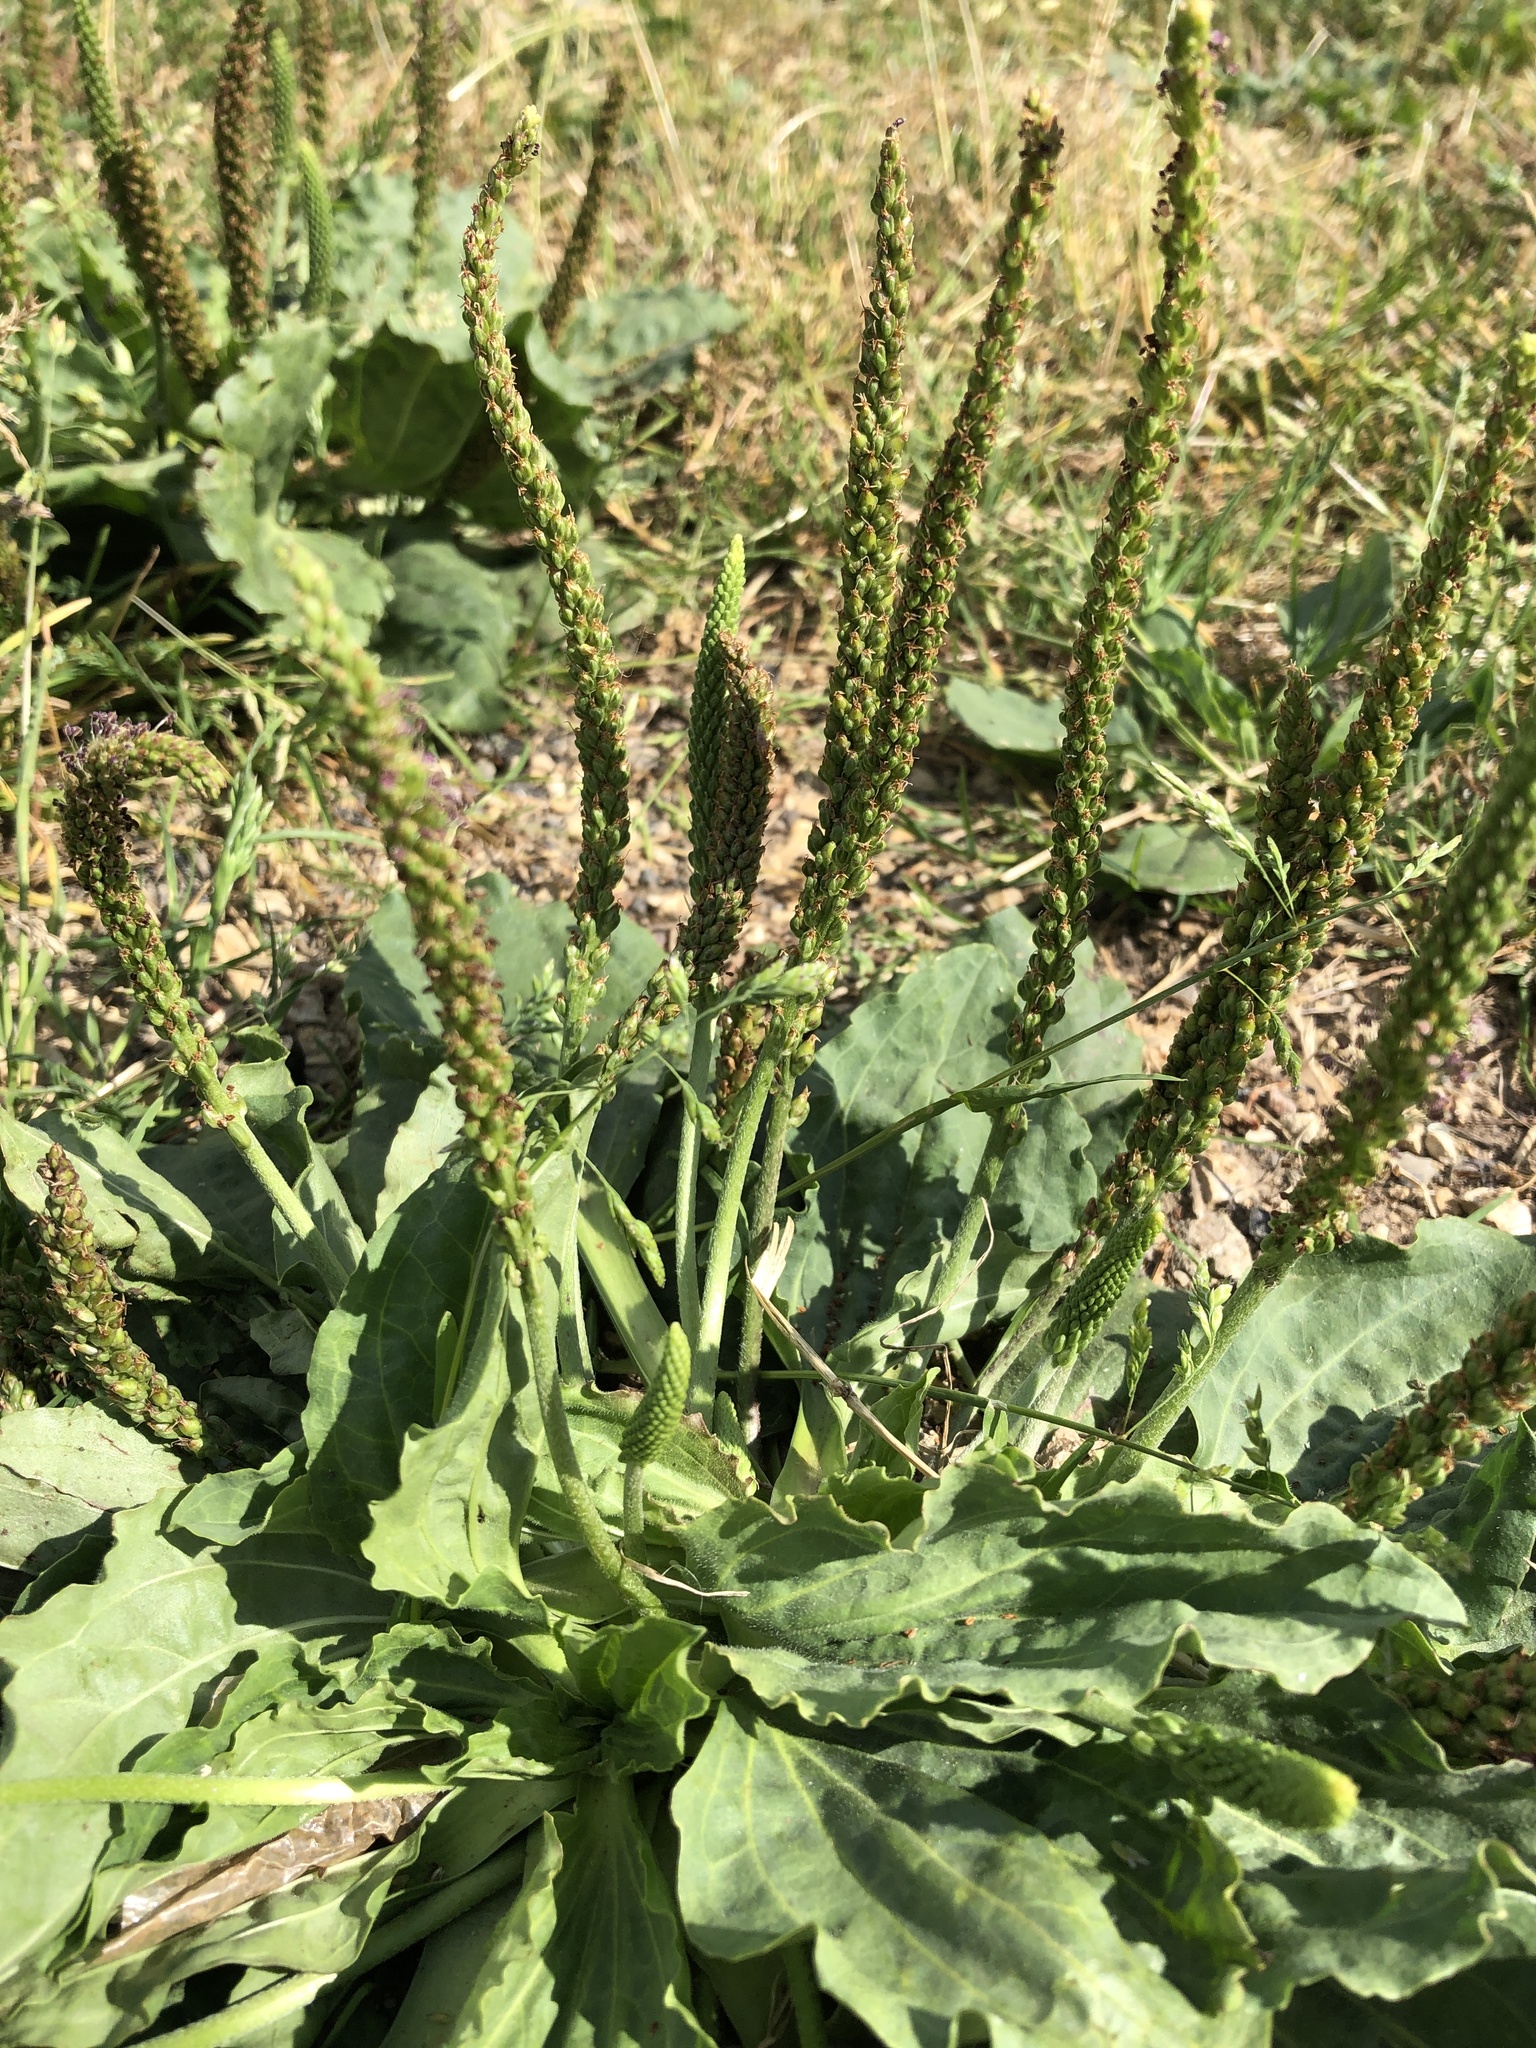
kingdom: Plantae
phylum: Tracheophyta
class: Magnoliopsida
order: Lamiales
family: Plantaginaceae
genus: Plantago
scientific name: Plantago major
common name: Common plantain
